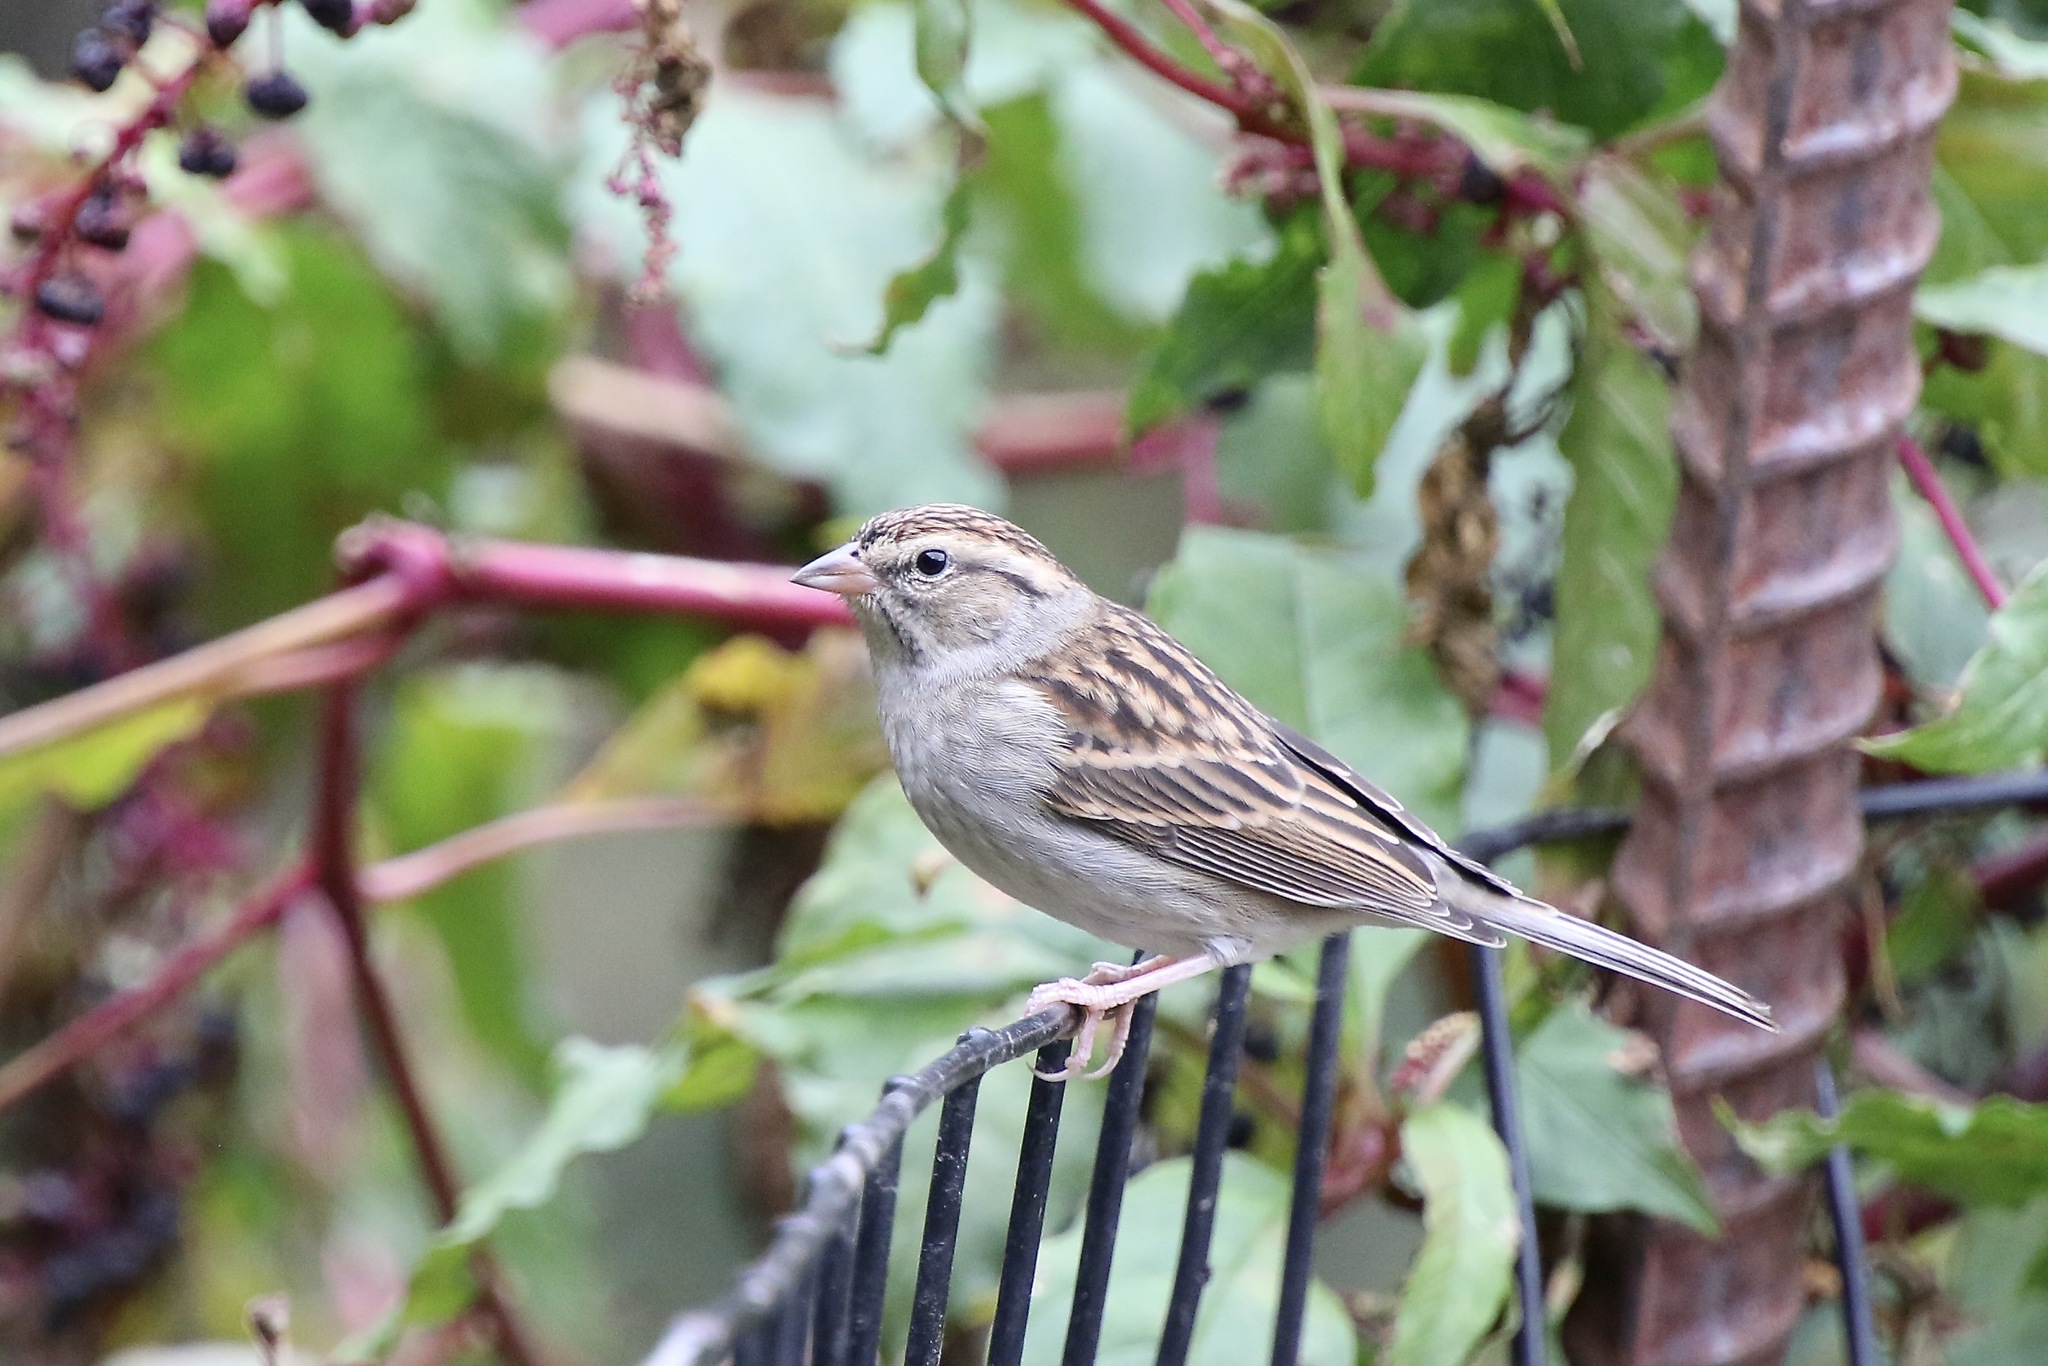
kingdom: Animalia
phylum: Chordata
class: Aves
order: Passeriformes
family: Passerellidae
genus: Spizella
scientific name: Spizella passerina
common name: Chipping sparrow
